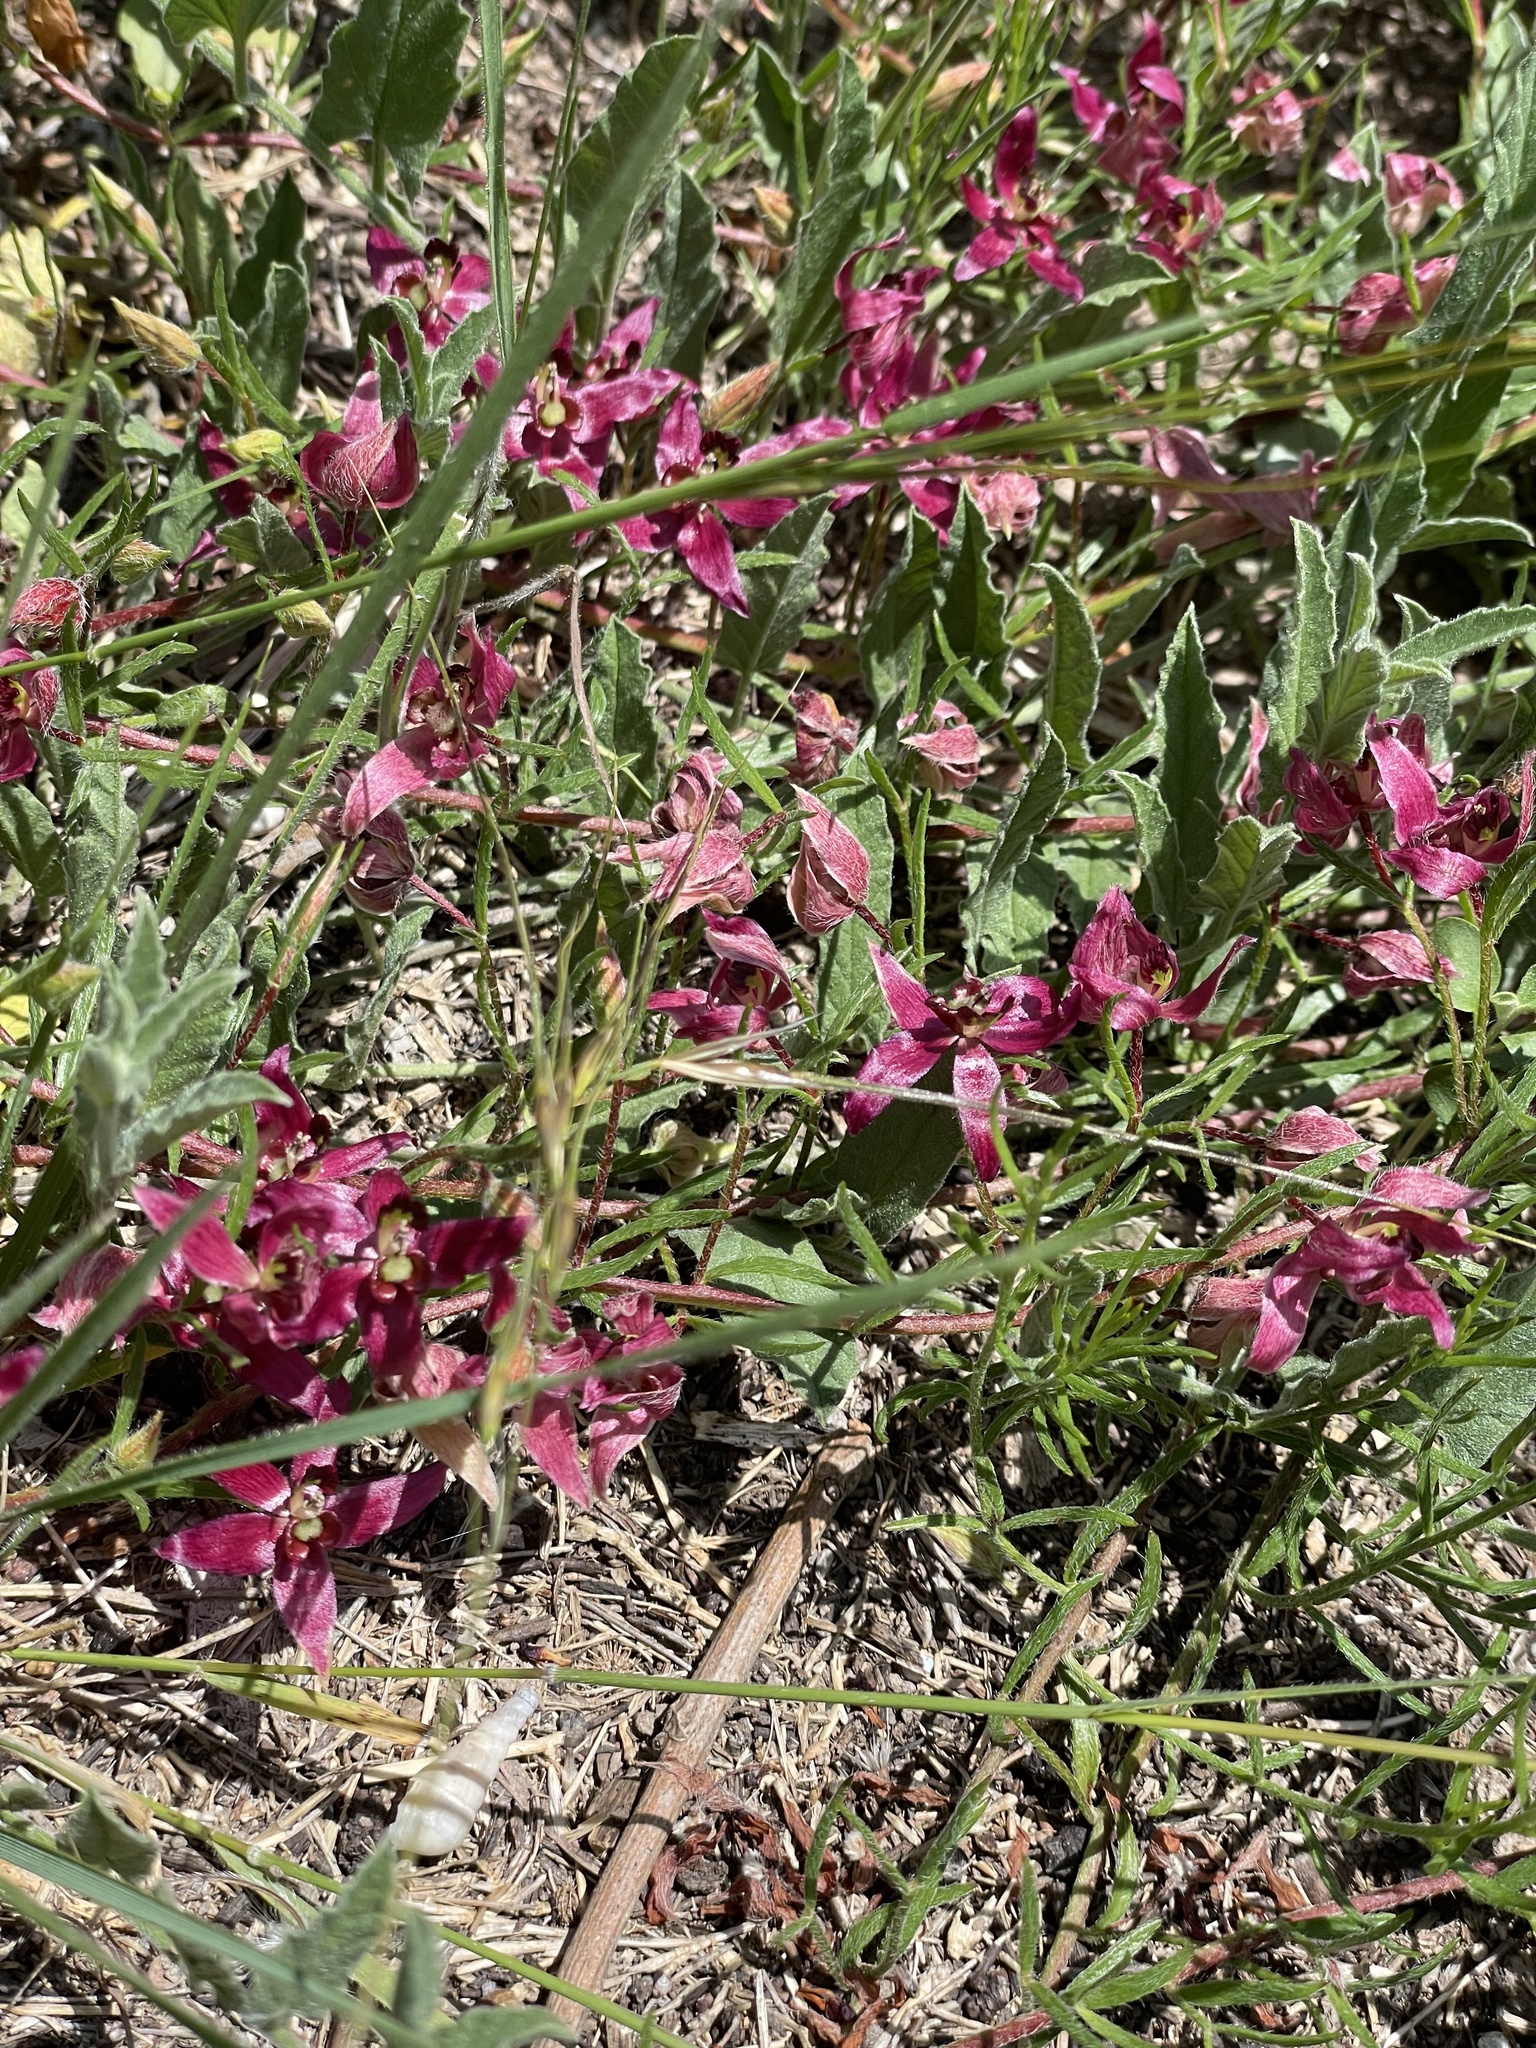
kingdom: Plantae
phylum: Tracheophyta
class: Magnoliopsida
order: Zygophyllales
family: Krameriaceae
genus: Krameria
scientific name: Krameria lanceolata
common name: Ratany
